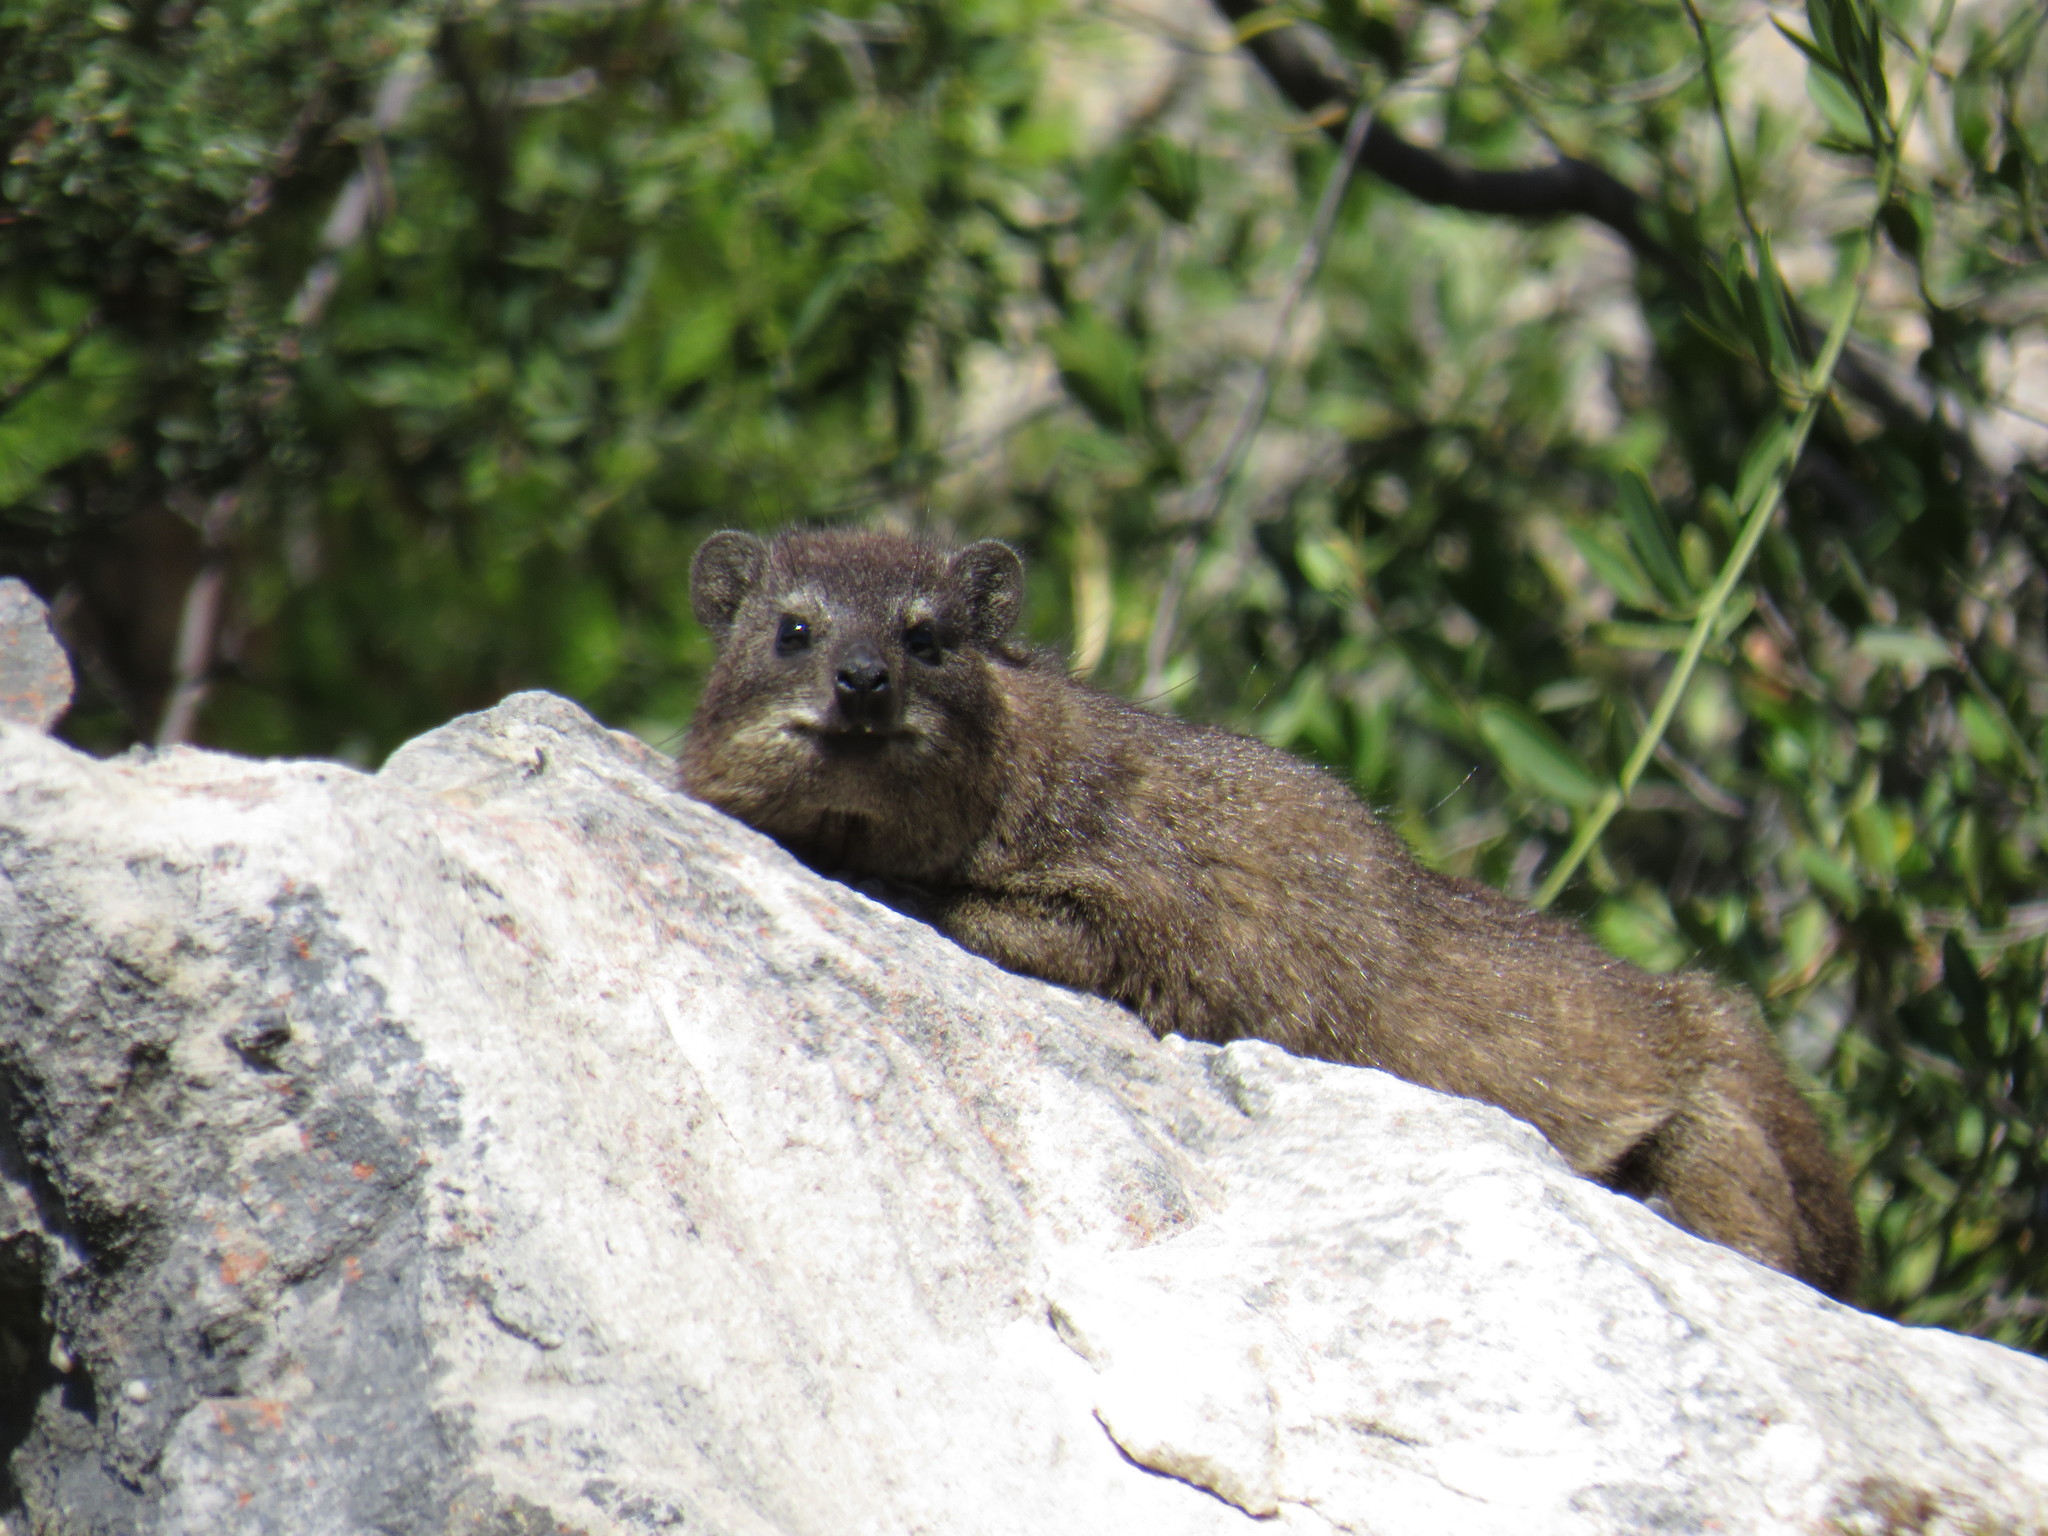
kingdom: Animalia
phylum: Chordata
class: Mammalia
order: Hyracoidea
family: Procaviidae
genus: Procavia
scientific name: Procavia capensis
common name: Rock hyrax
